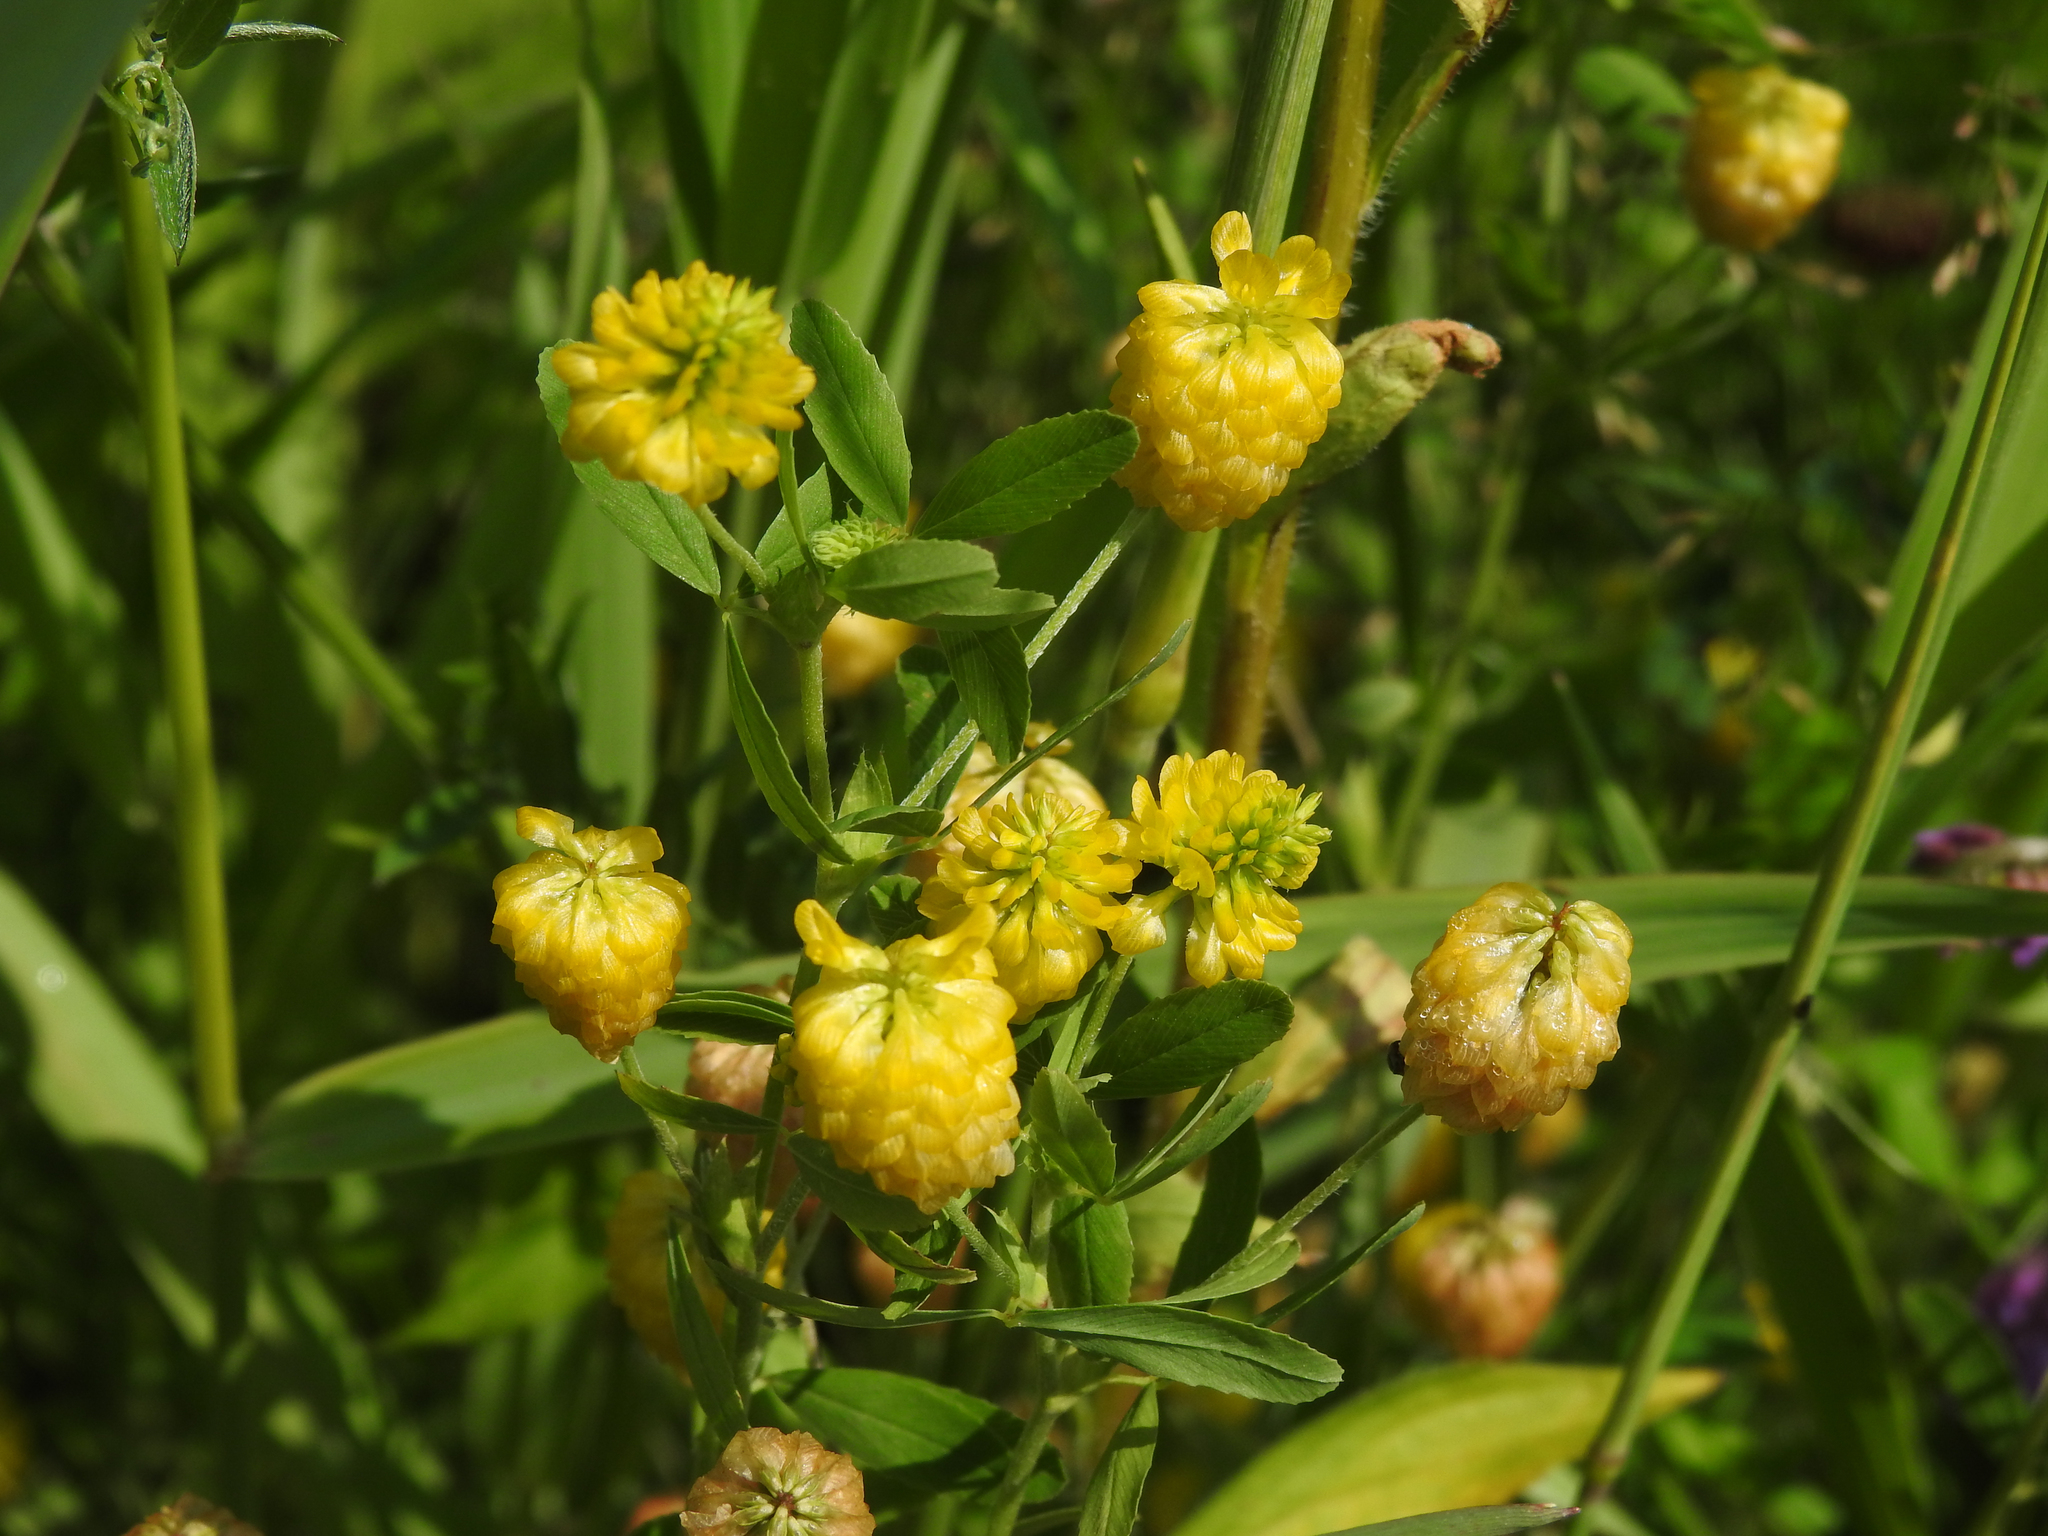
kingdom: Plantae
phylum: Tracheophyta
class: Magnoliopsida
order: Fabales
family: Fabaceae
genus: Trifolium
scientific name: Trifolium aureum
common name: Golden clover
